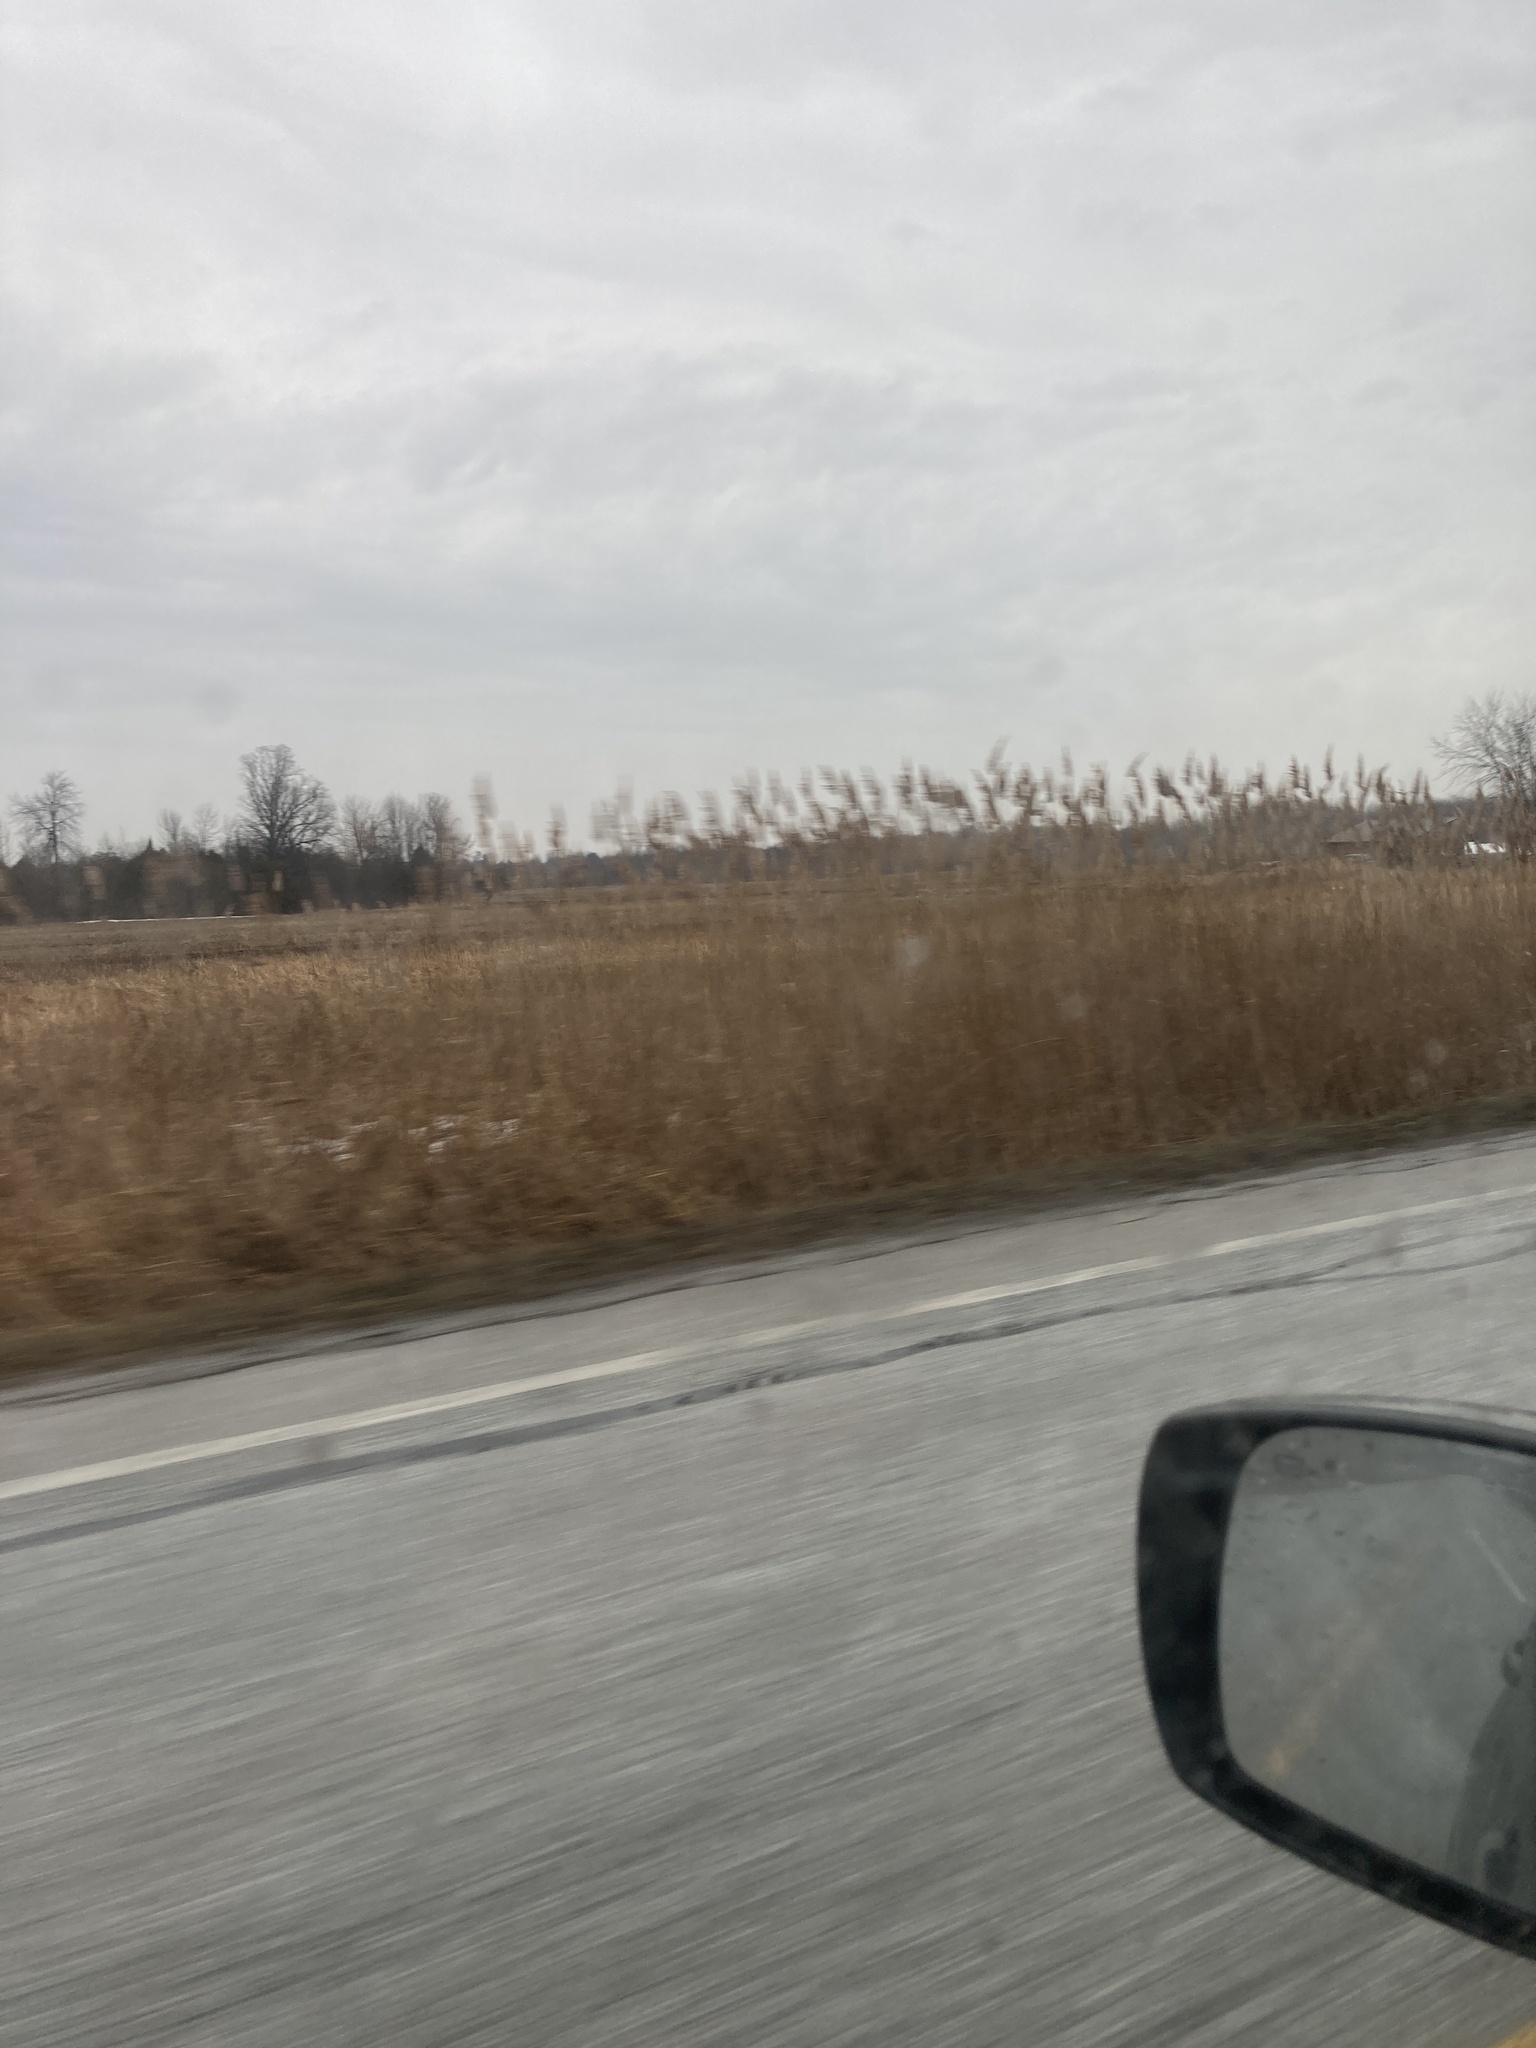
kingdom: Plantae
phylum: Tracheophyta
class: Liliopsida
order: Poales
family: Poaceae
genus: Phragmites
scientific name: Phragmites australis
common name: Common reed
